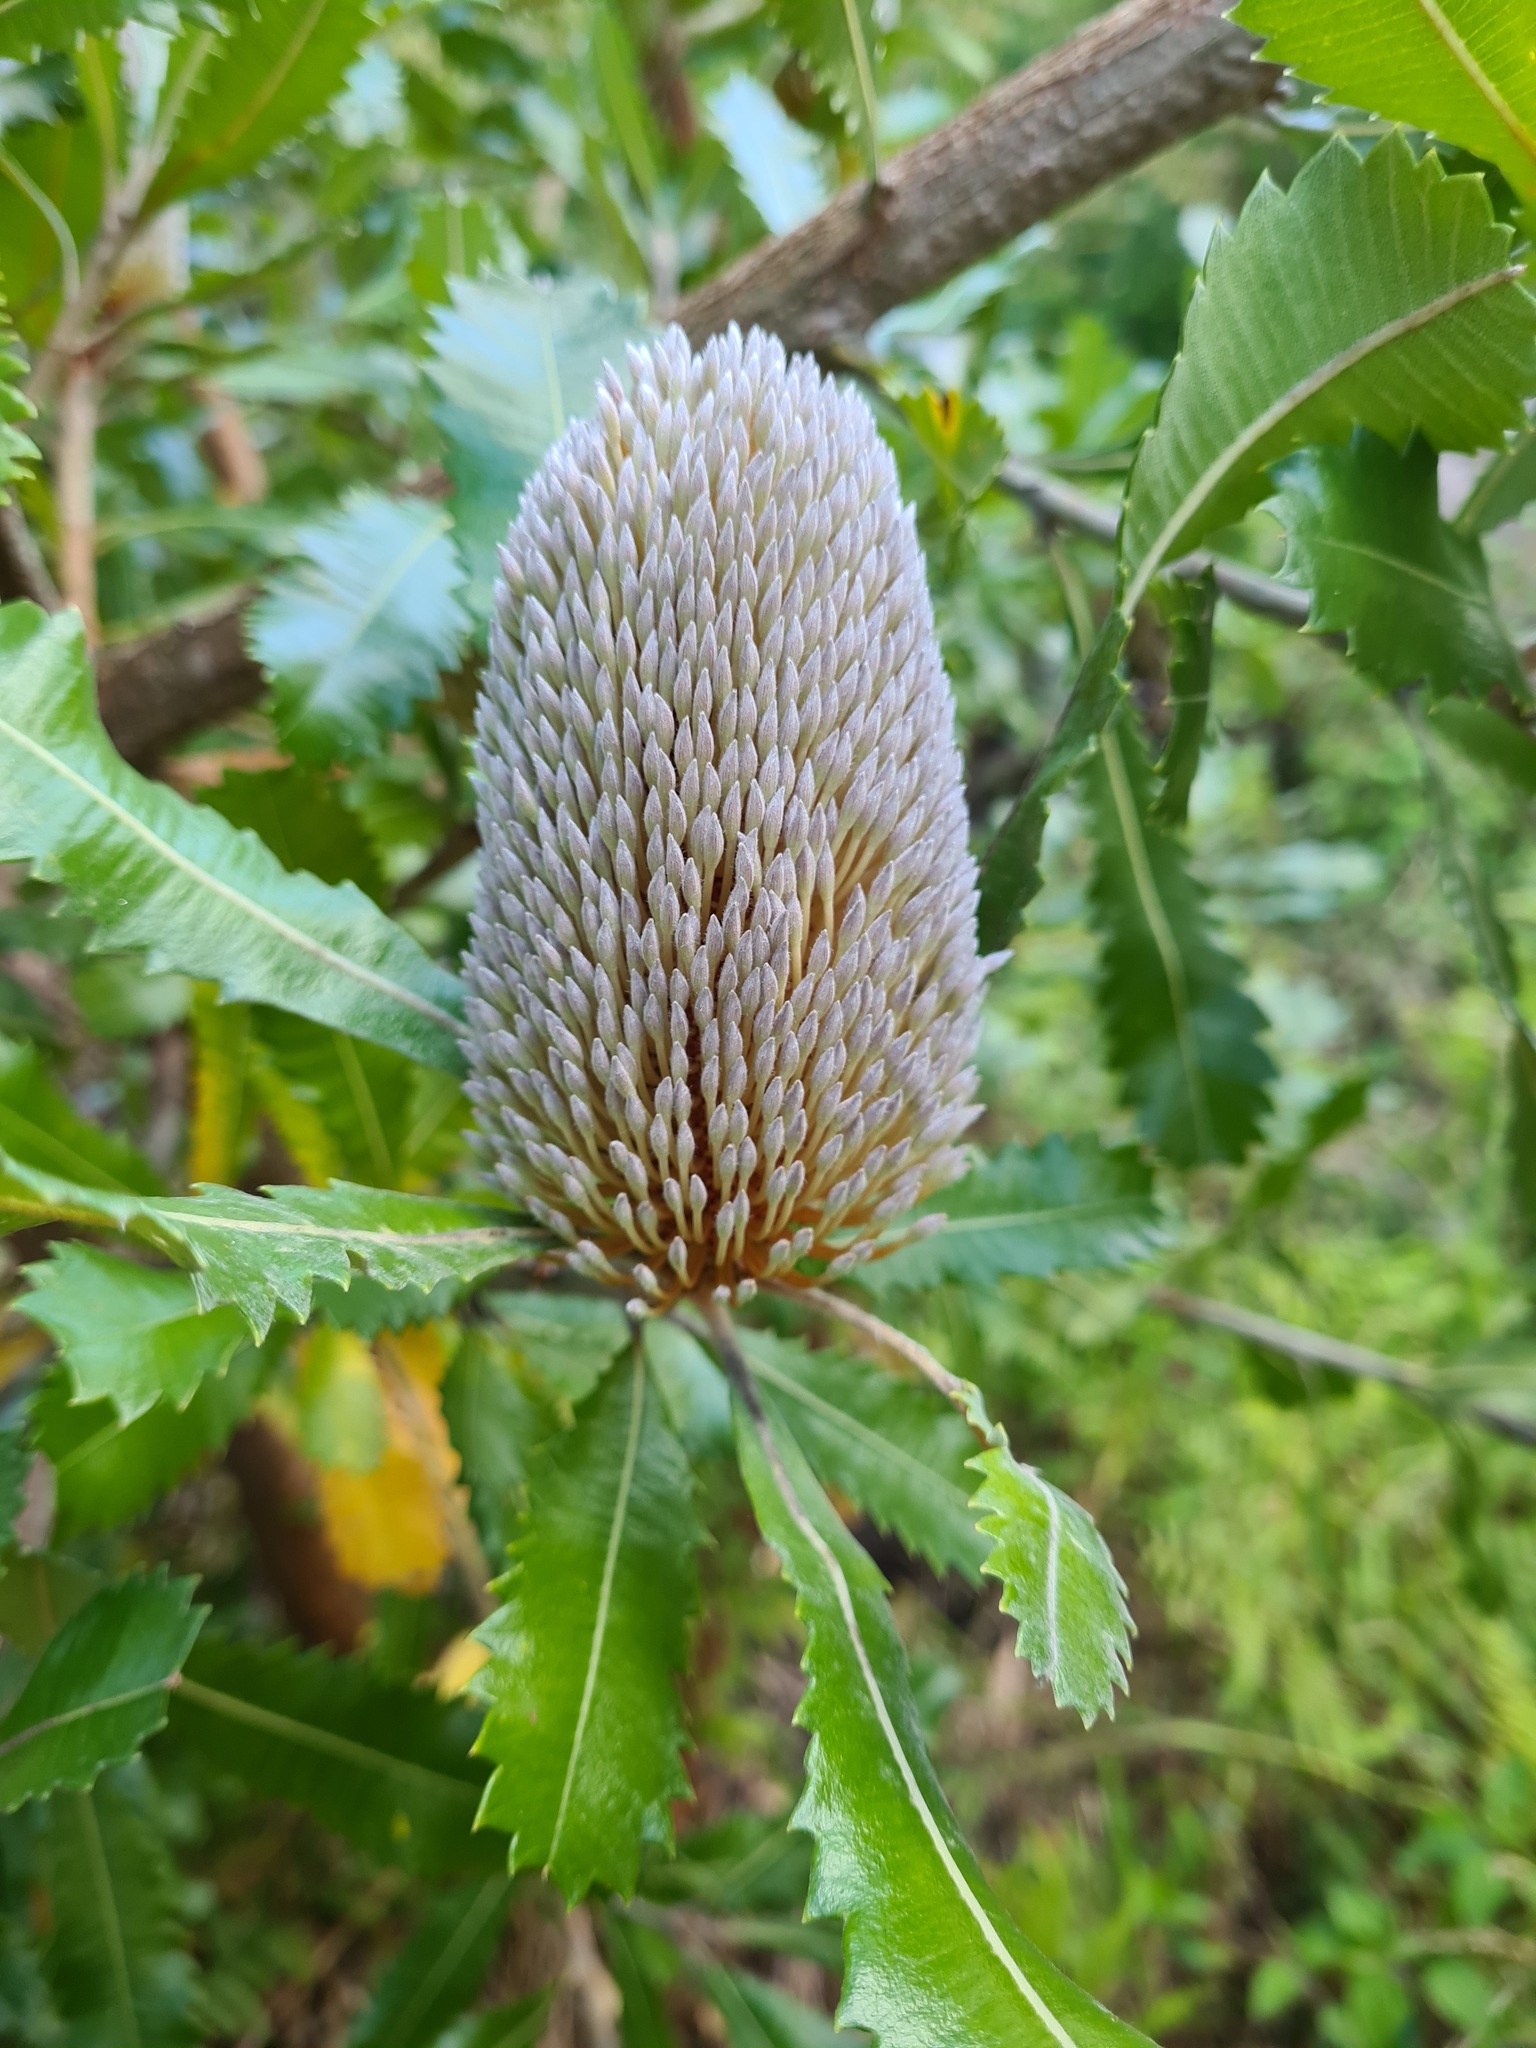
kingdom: Plantae
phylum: Tracheophyta
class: Magnoliopsida
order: Proteales
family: Proteaceae
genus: Banksia
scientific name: Banksia serrata
